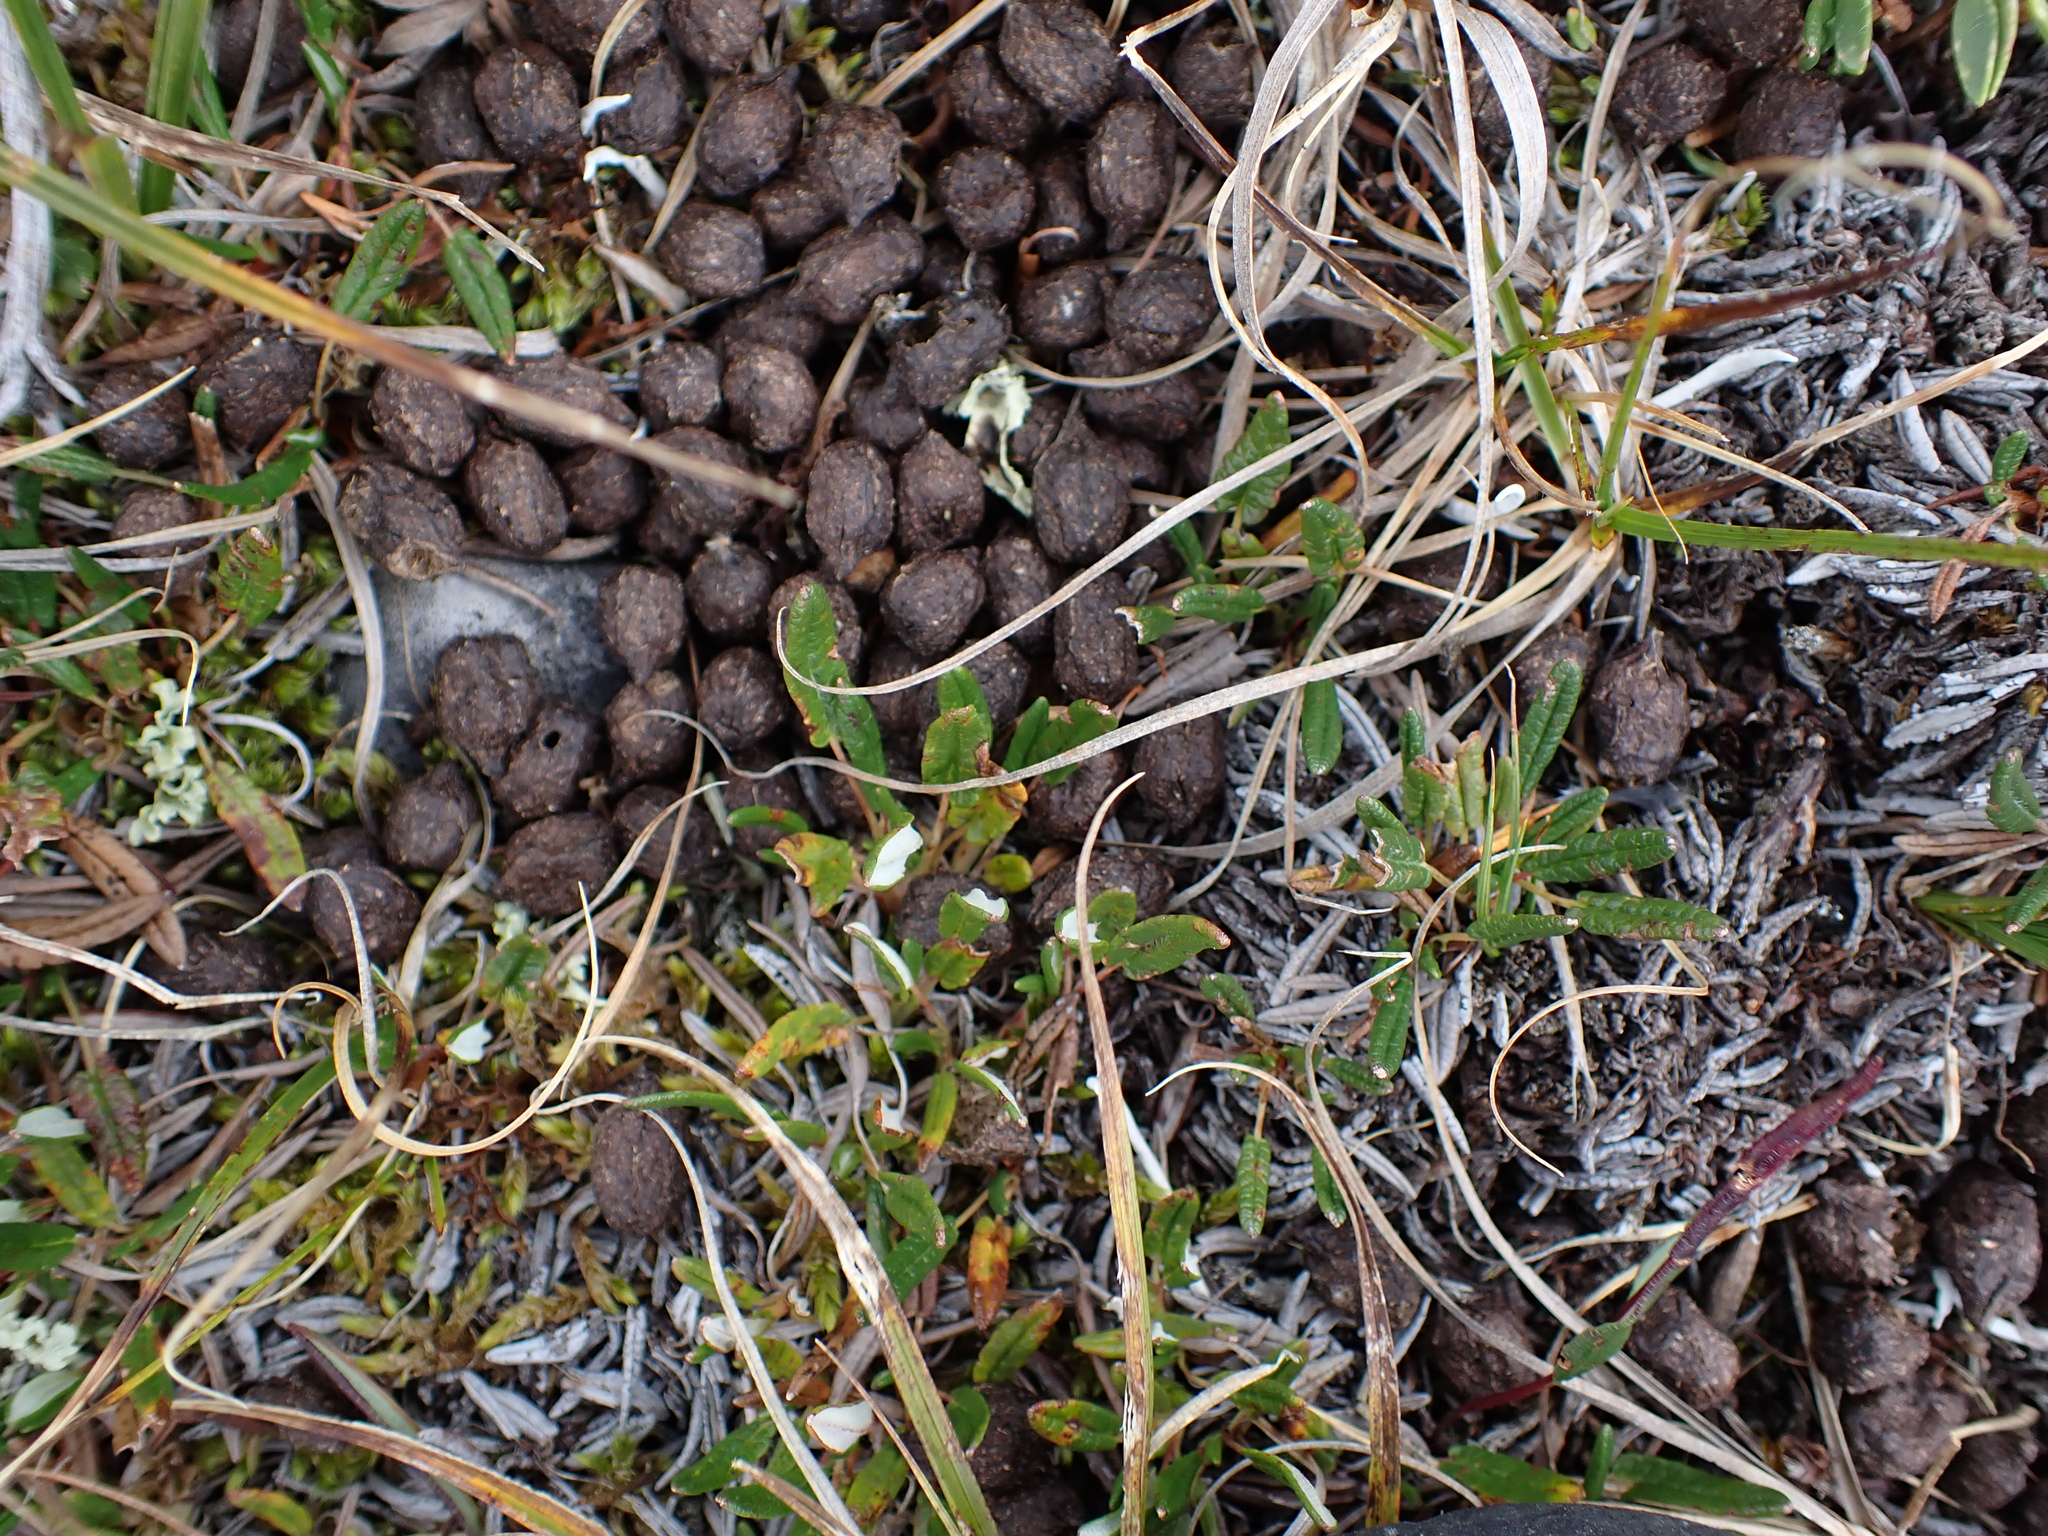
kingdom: Animalia
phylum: Chordata
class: Mammalia
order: Artiodactyla
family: Bovidae
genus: Ovis
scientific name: Ovis dalli
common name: Dall's sheep
